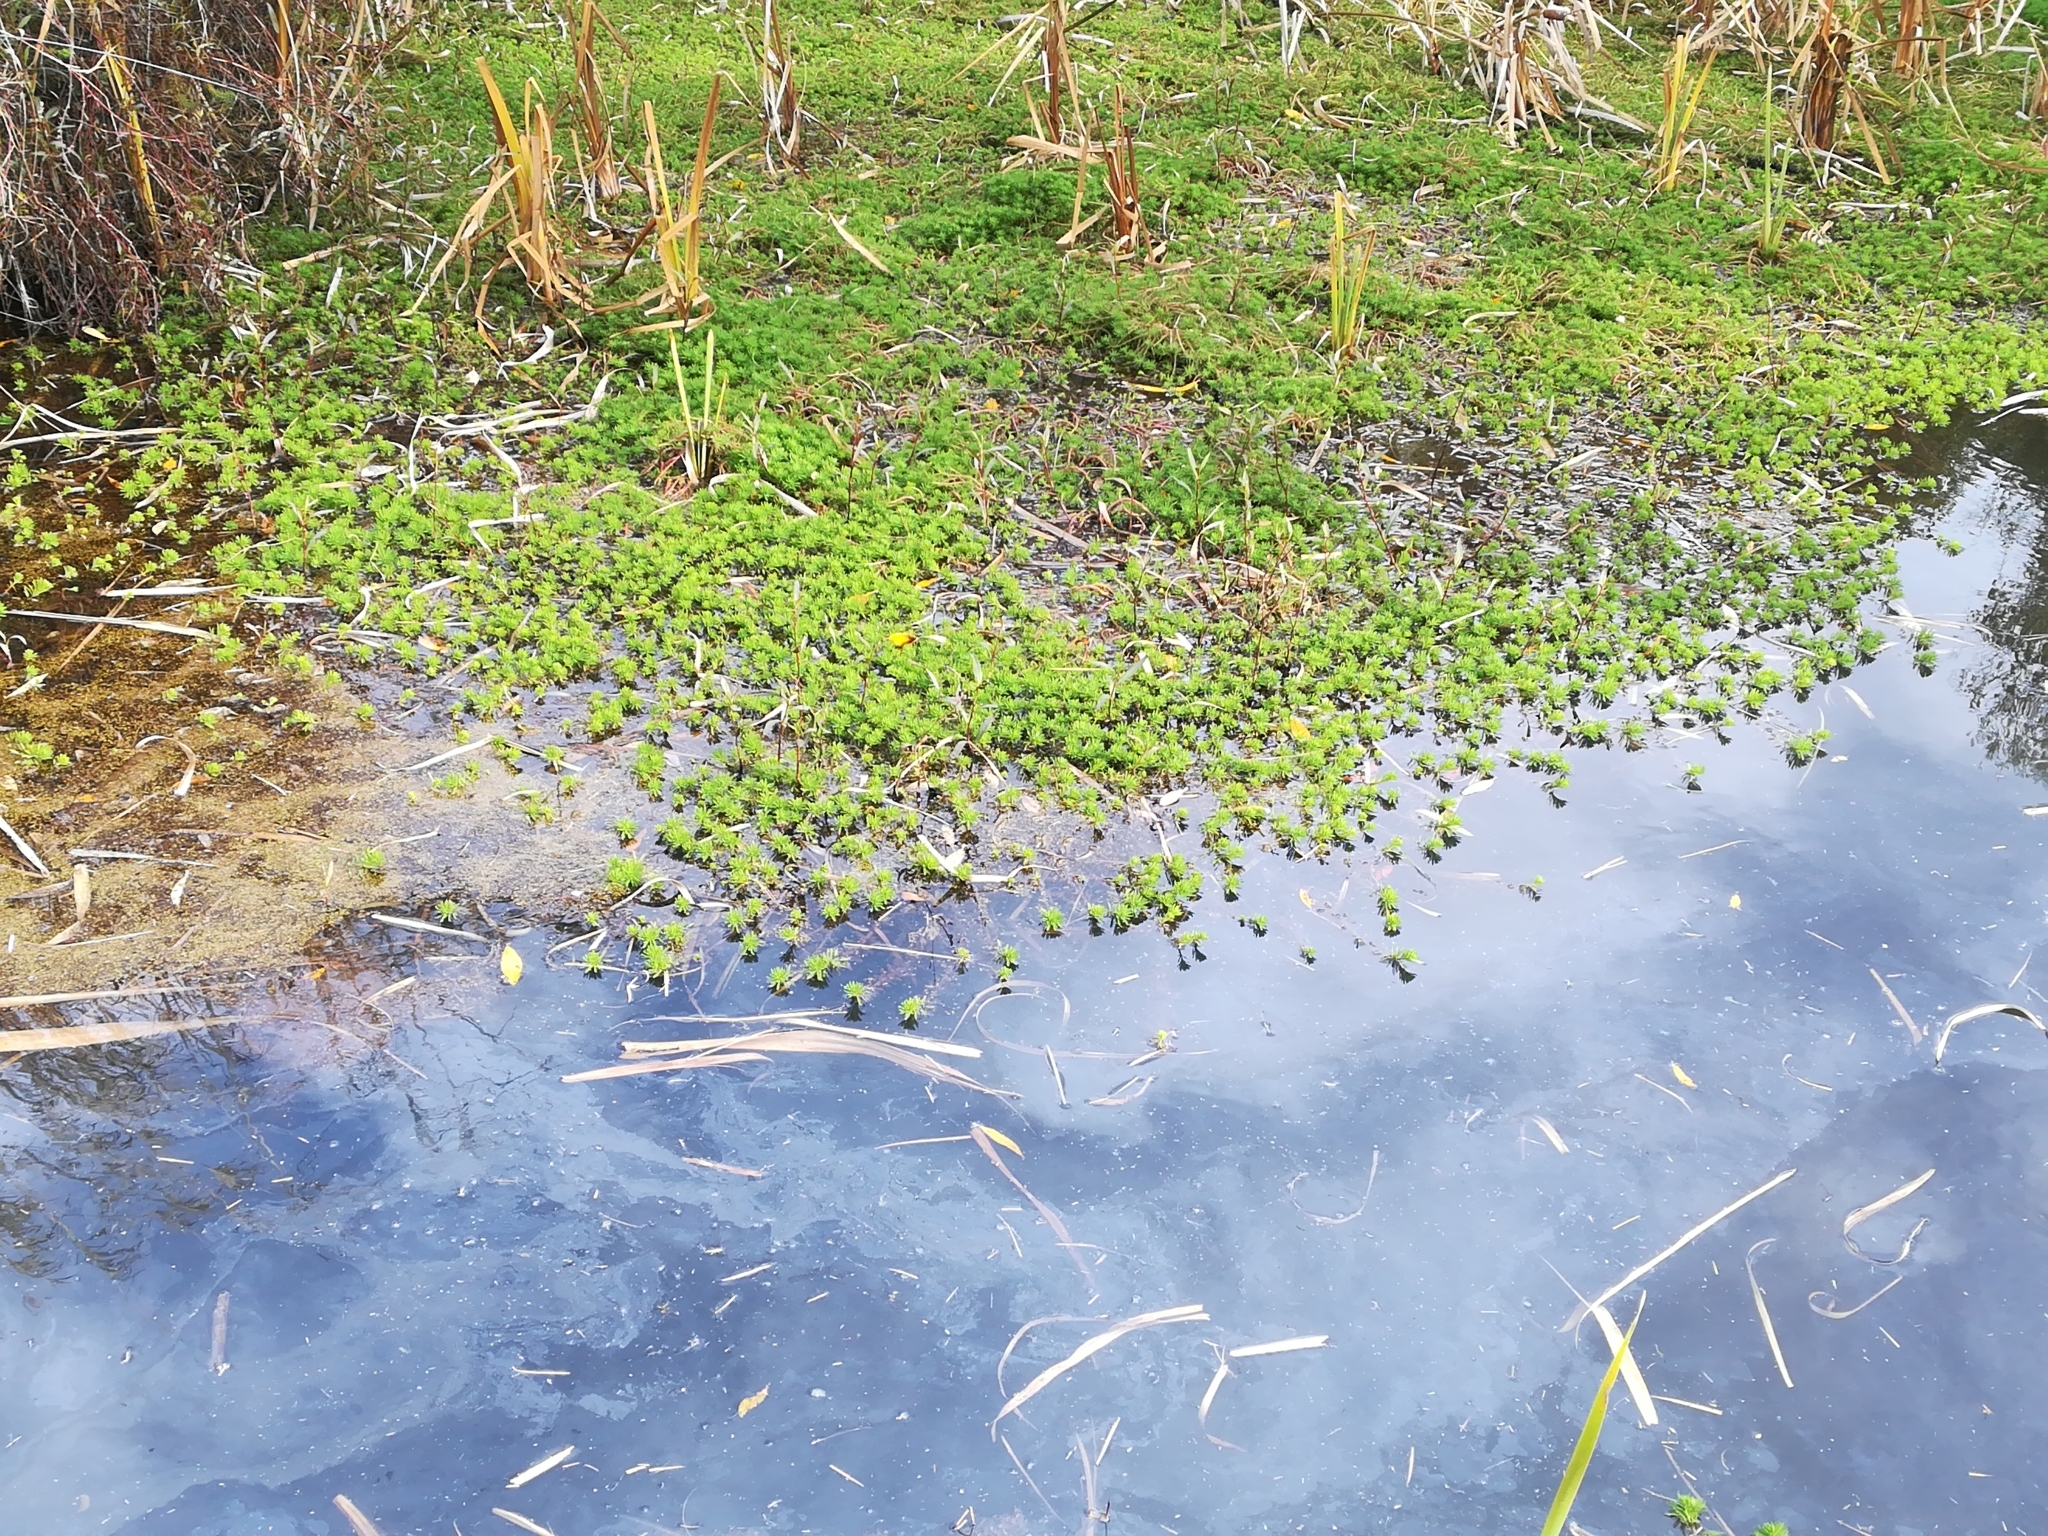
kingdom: Plantae
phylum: Tracheophyta
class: Magnoliopsida
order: Saxifragales
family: Haloragaceae
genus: Myriophyllum
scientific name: Myriophyllum aquaticum
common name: Parrot's feather
